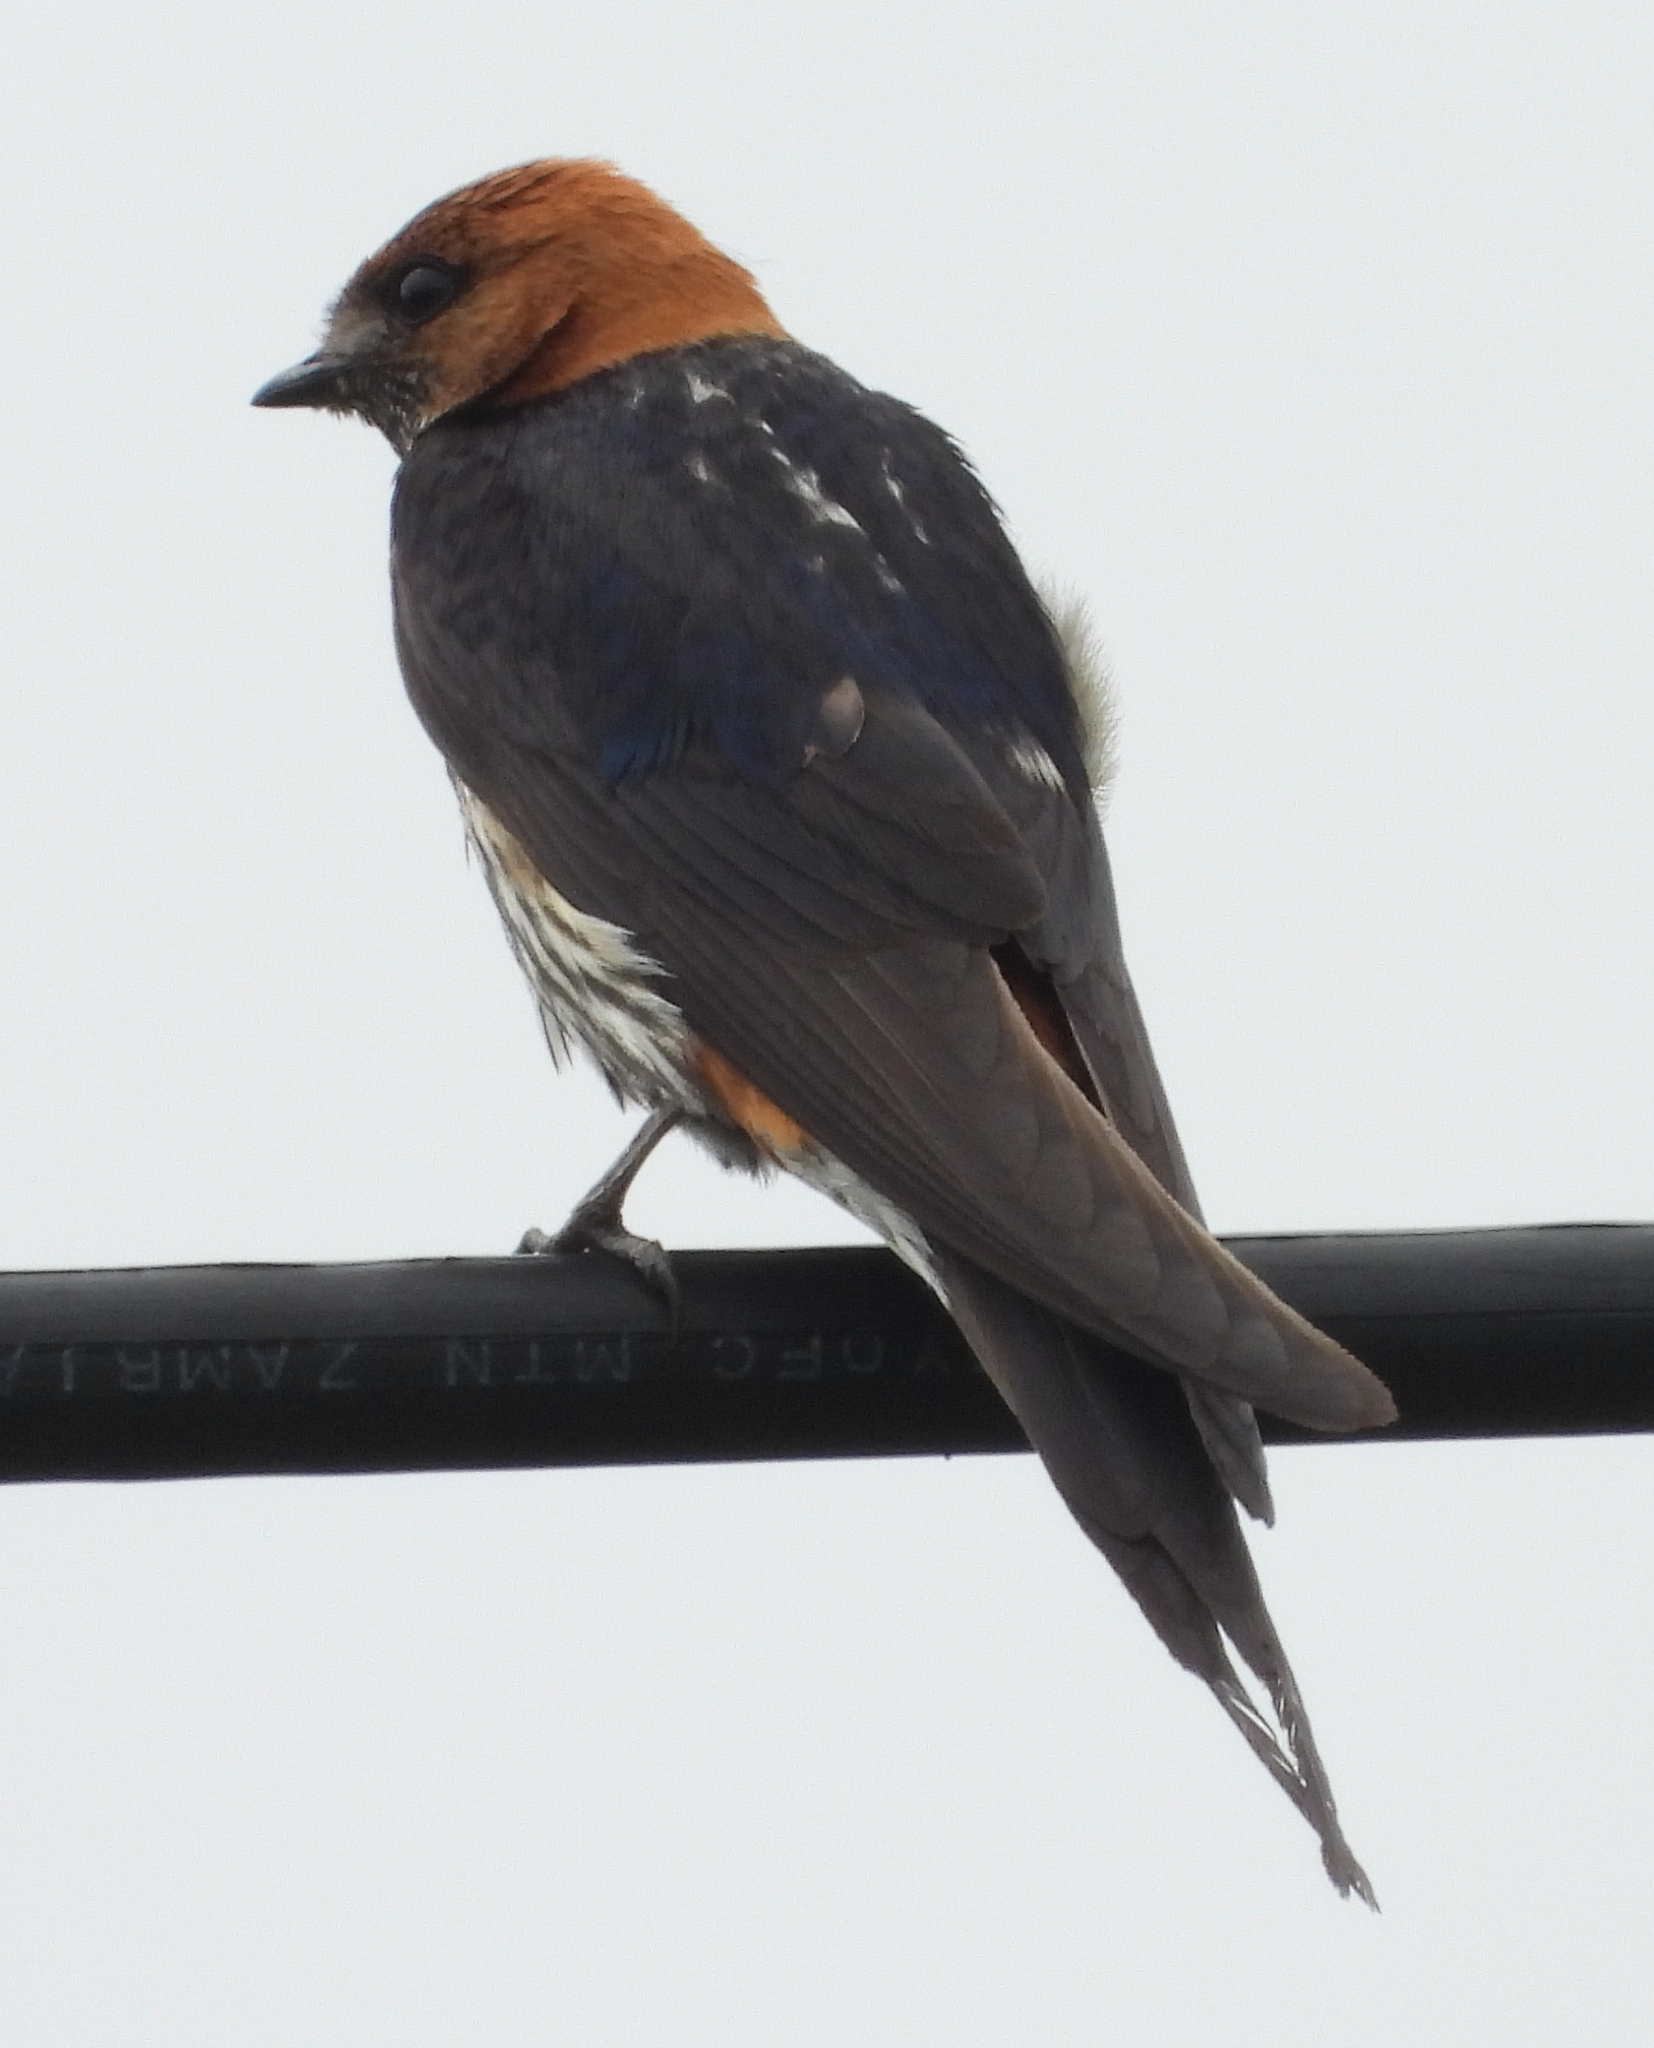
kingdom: Animalia
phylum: Chordata
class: Aves
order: Passeriformes
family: Hirundinidae
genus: Cecropis
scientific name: Cecropis abyssinica
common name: Lesser striped-swallow
